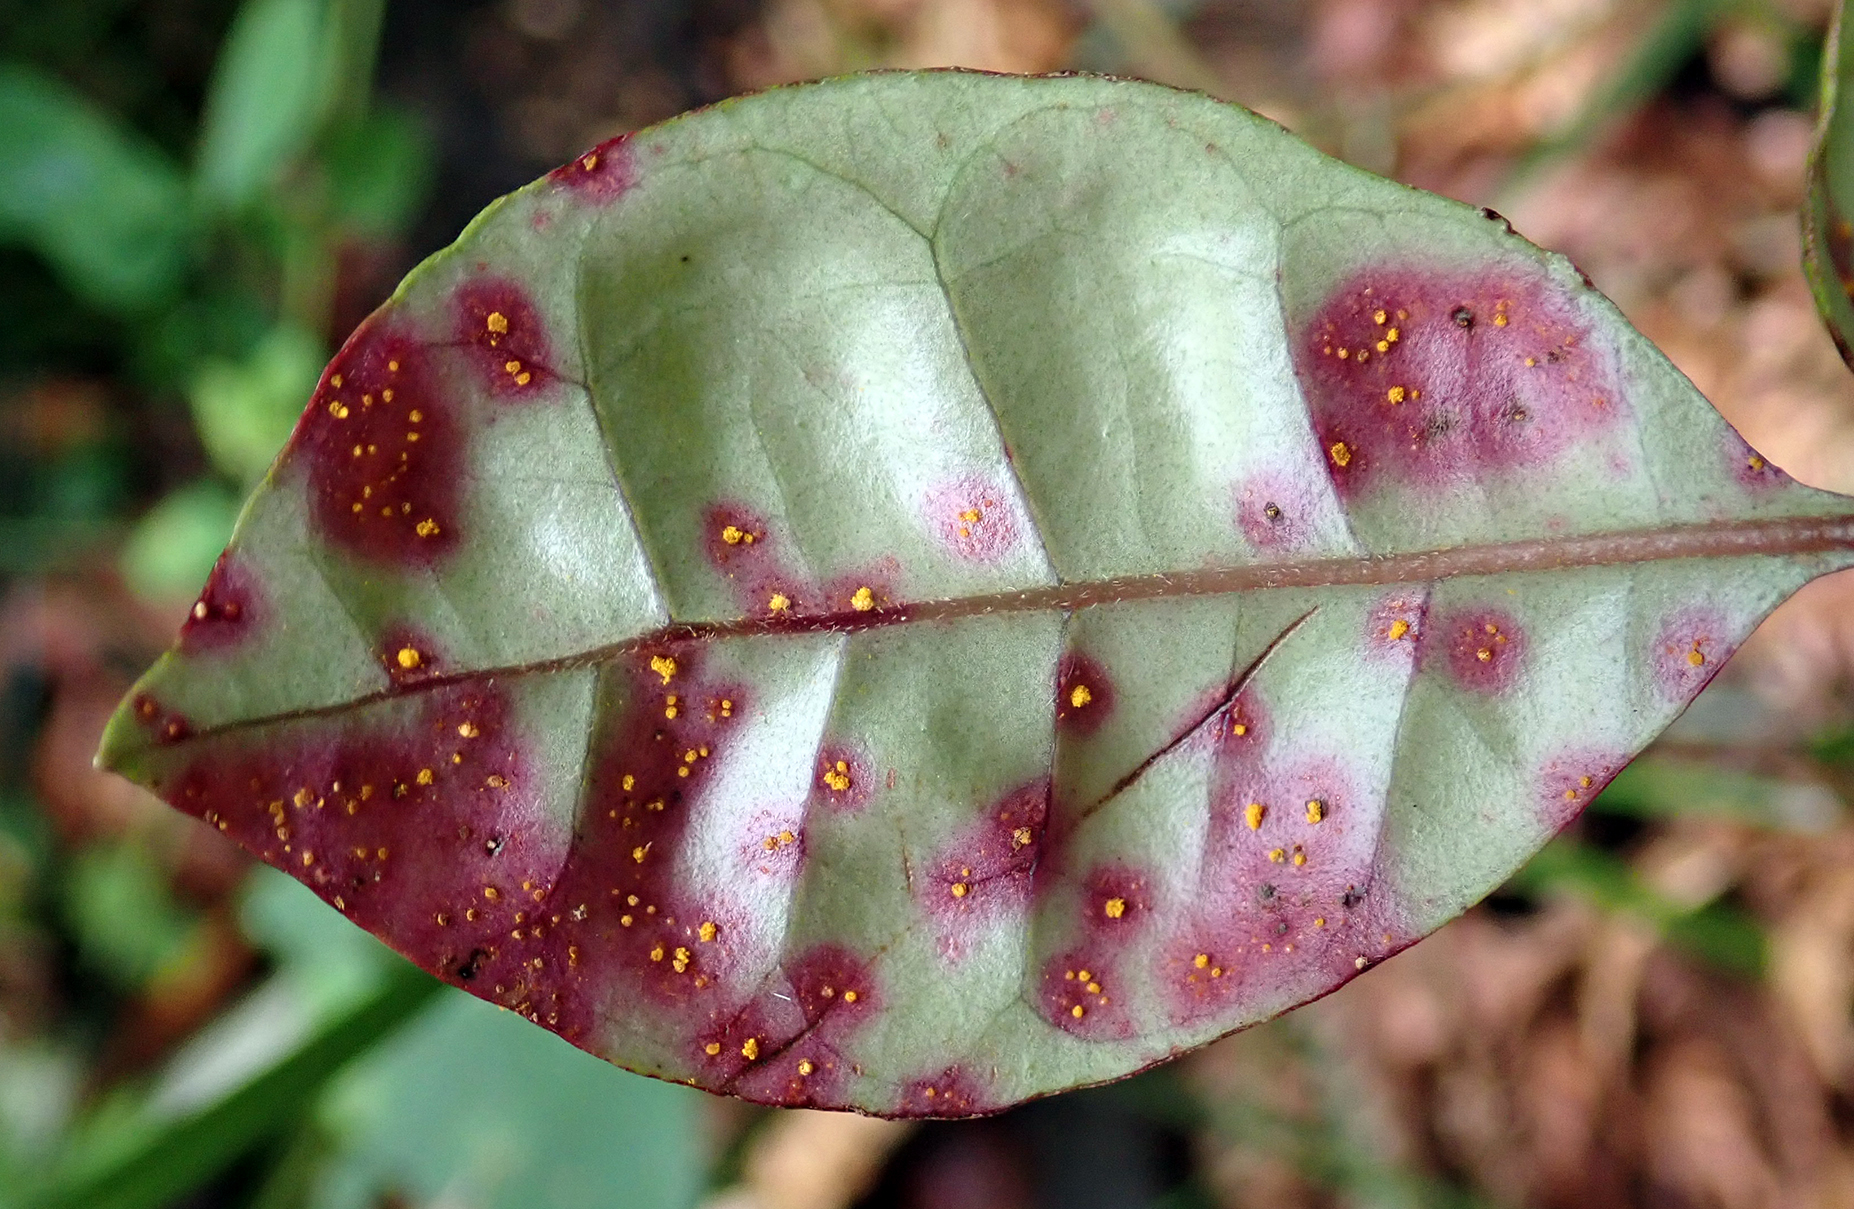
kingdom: Fungi
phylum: Basidiomycota
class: Pucciniomycetes
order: Pucciniales
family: Sphaerophragmiaceae
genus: Austropuccinia
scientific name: Austropuccinia psidii
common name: Myrtle rust
